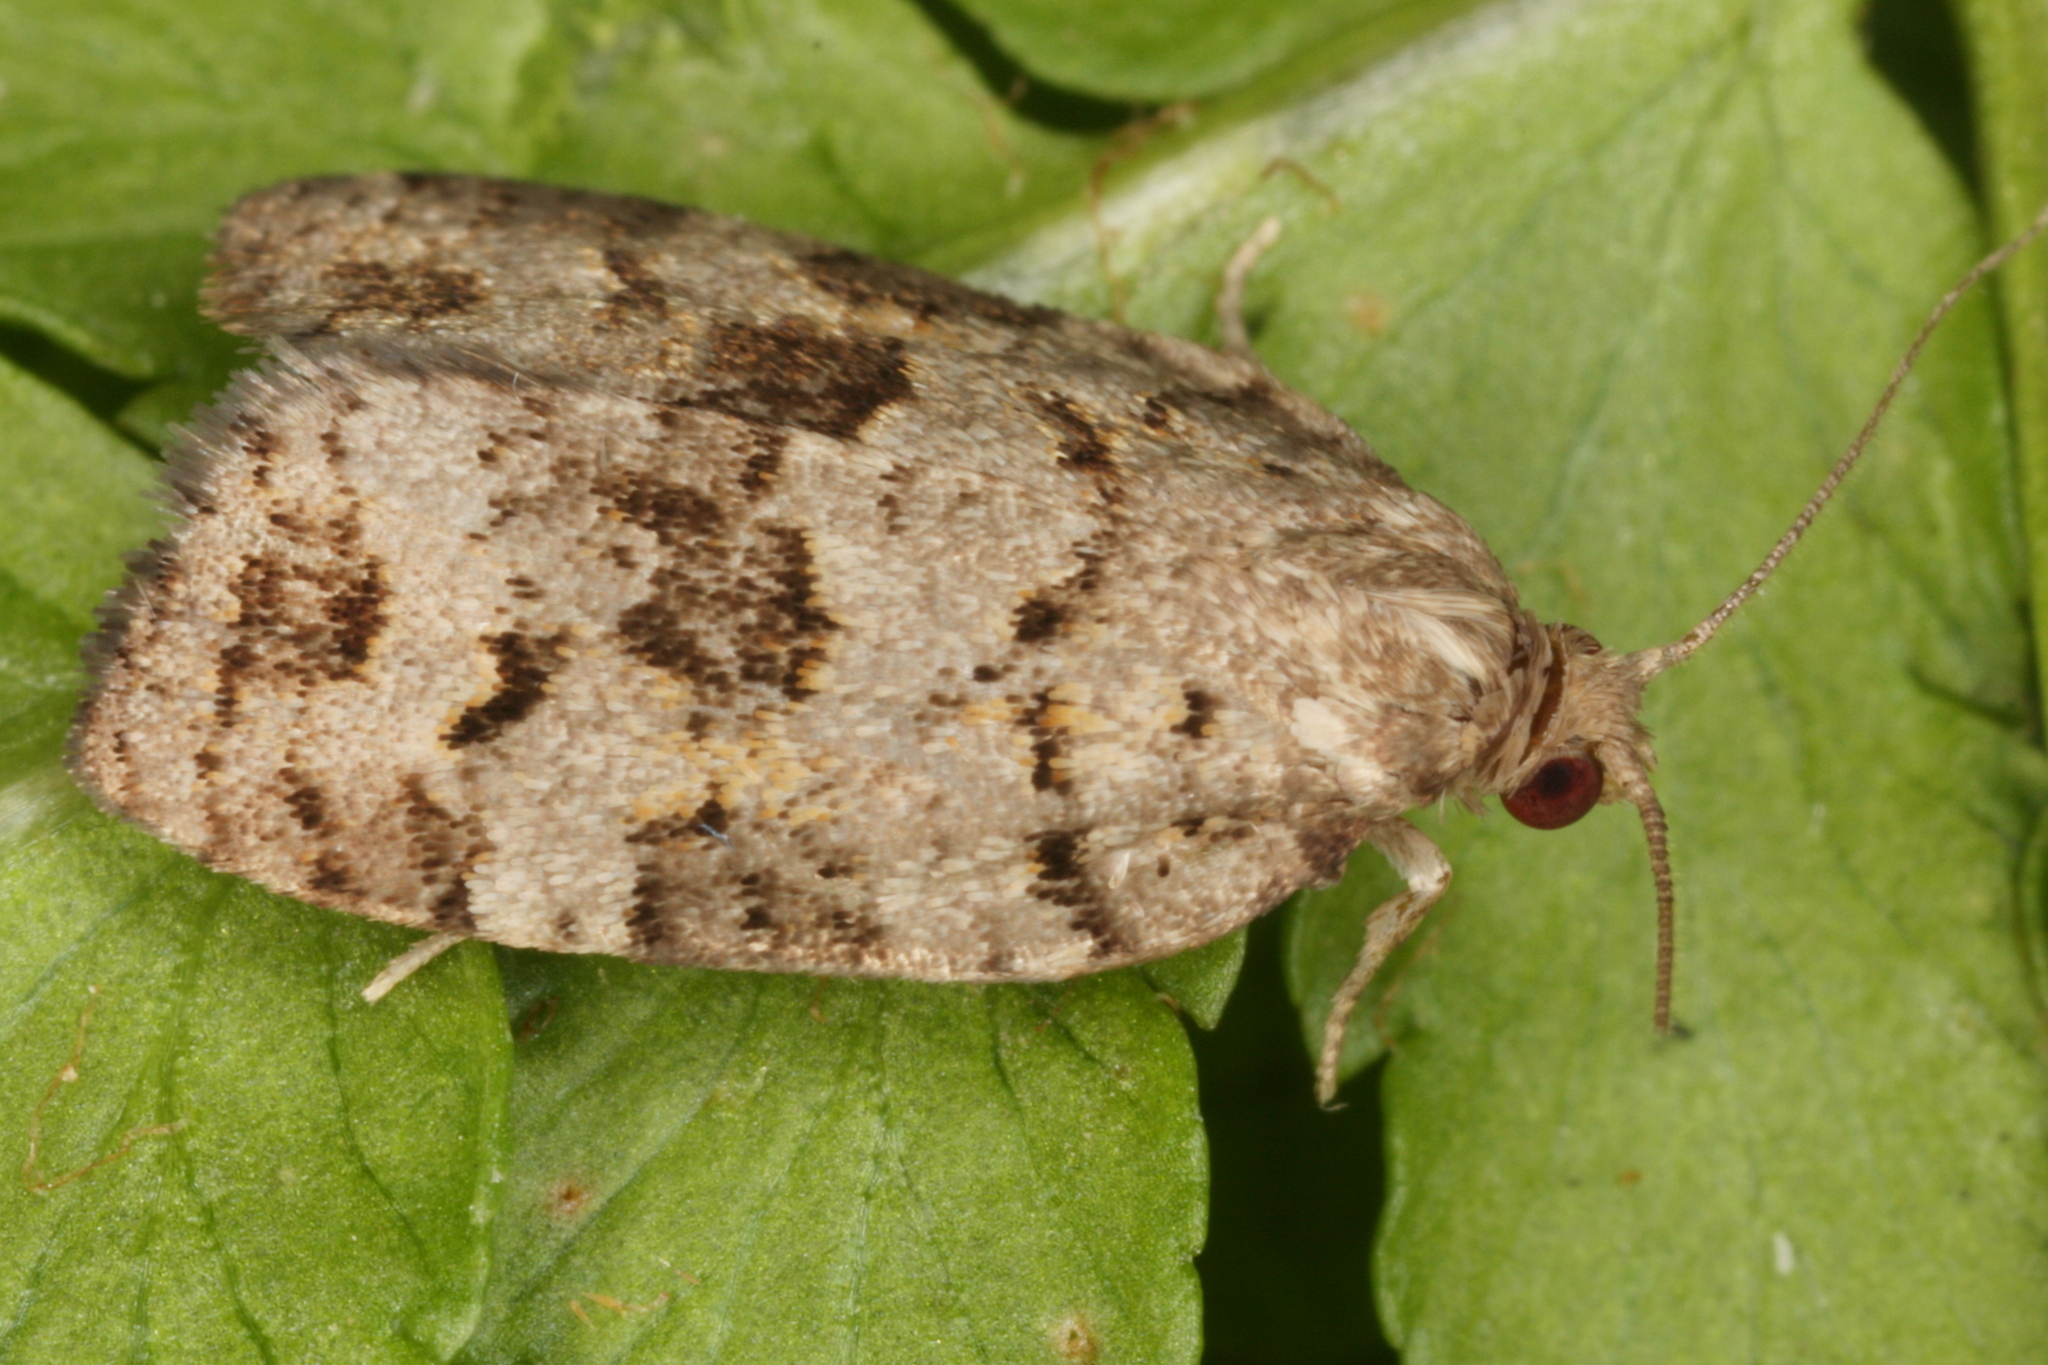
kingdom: Animalia
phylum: Arthropoda
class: Insecta
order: Lepidoptera
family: Tortricidae
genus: Dichelia
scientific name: Dichelia histrionana
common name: Tortricid moth
